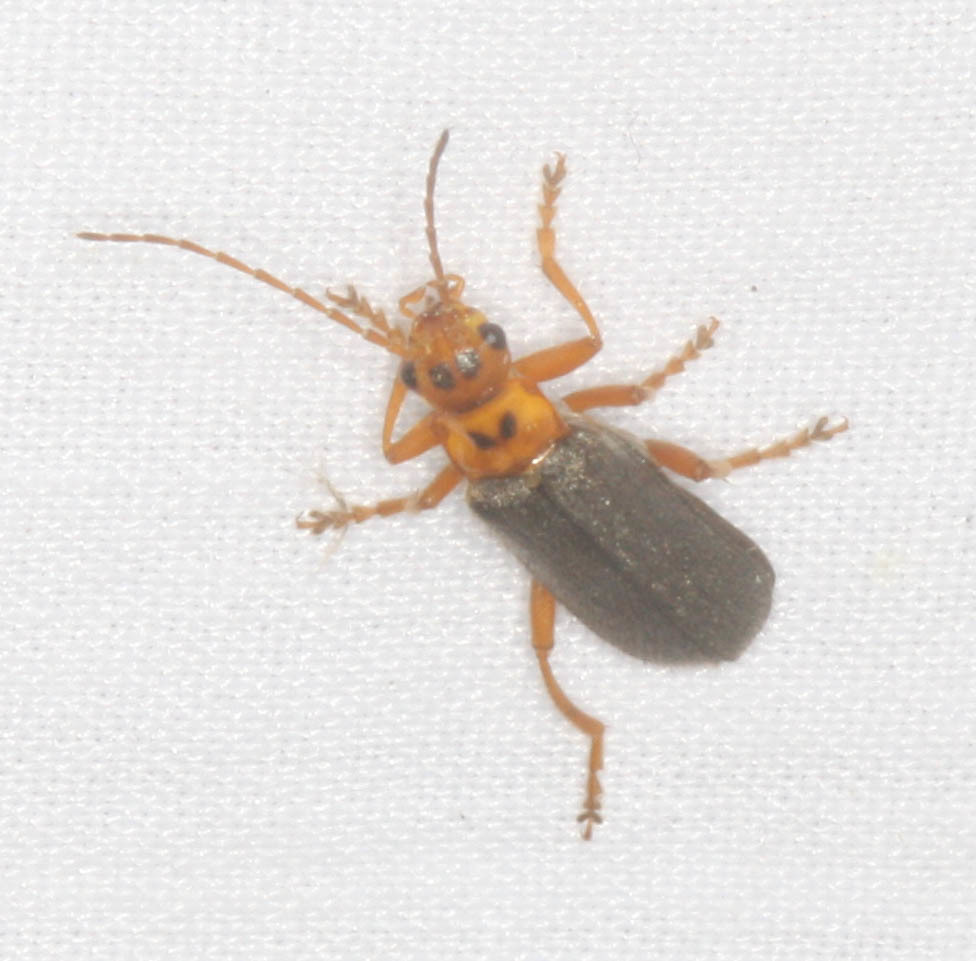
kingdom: Animalia
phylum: Arthropoda
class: Insecta
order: Coleoptera
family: Cantharidae
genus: Cultellunguis
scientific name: Cultellunguis americanus
